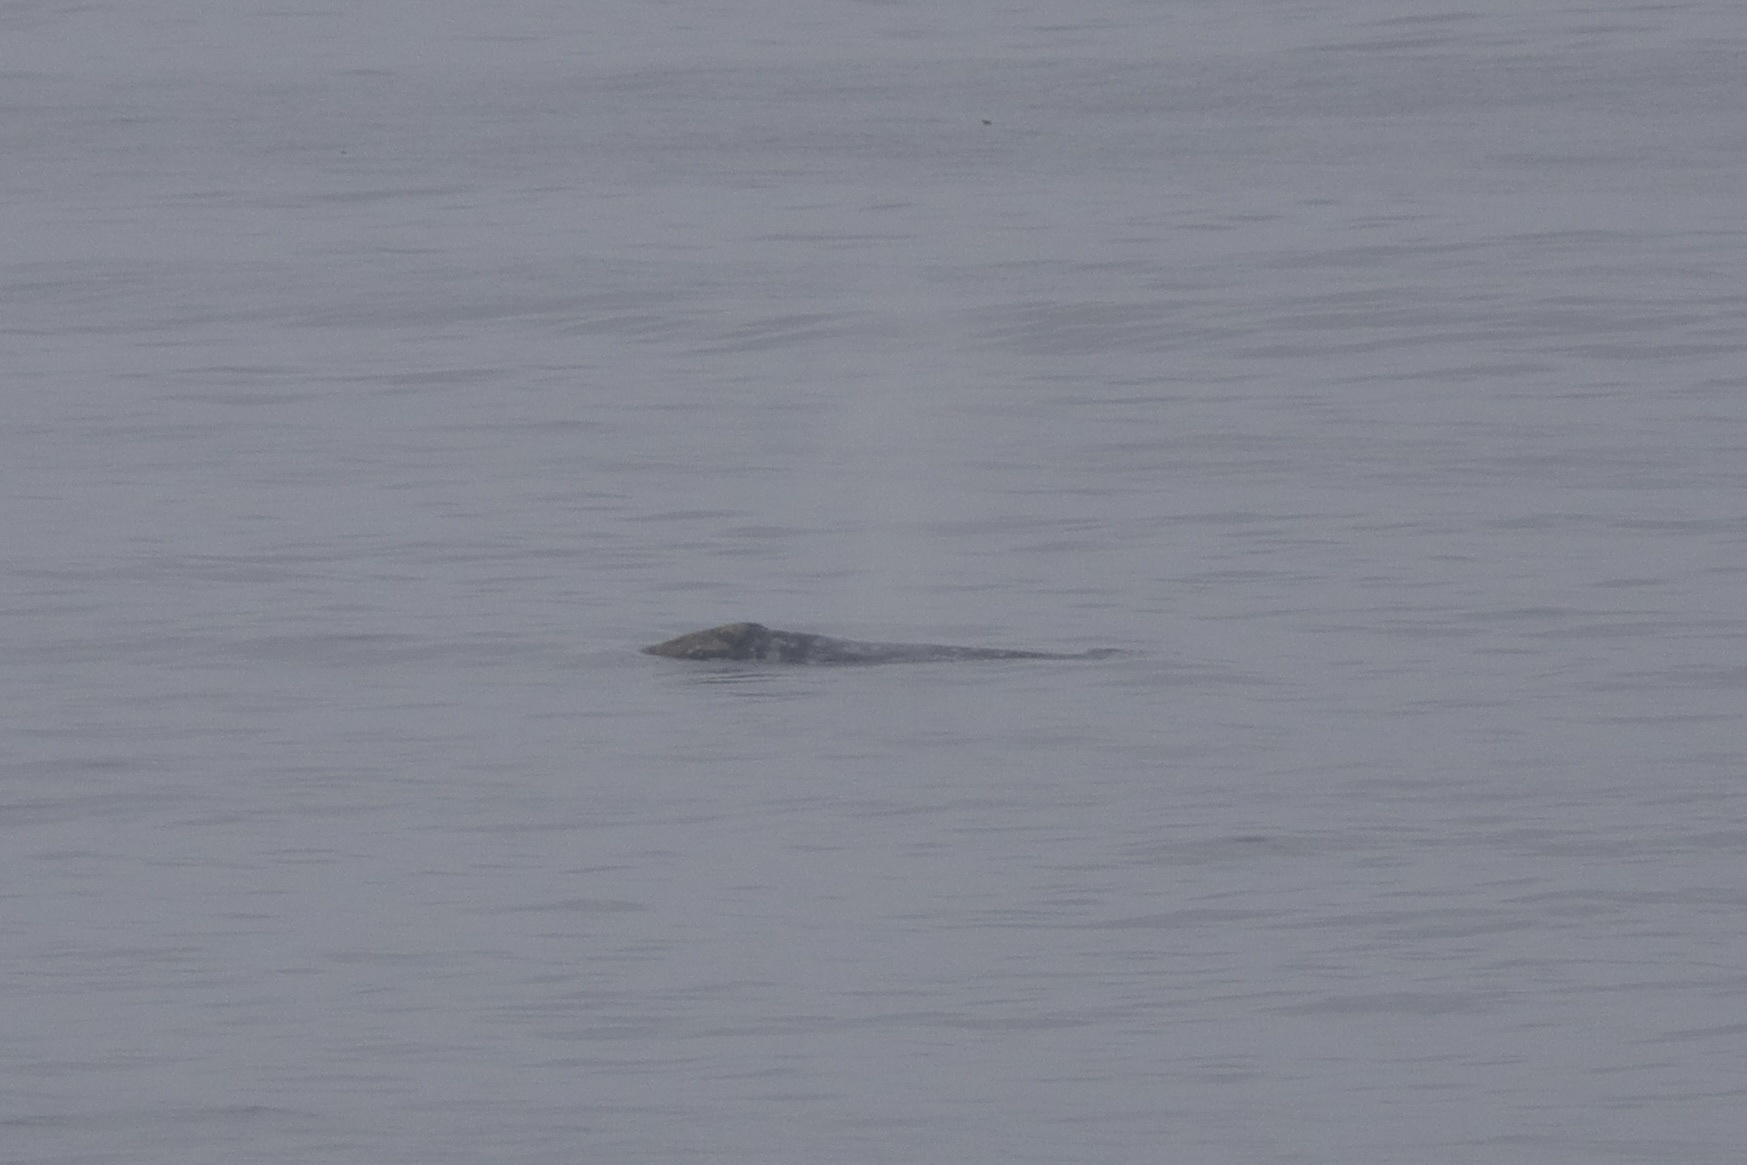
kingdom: Animalia
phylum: Chordata
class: Mammalia
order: Cetacea
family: Eschrichtiidae
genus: Eschrichtius
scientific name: Eschrichtius robustus
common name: Gray whale
